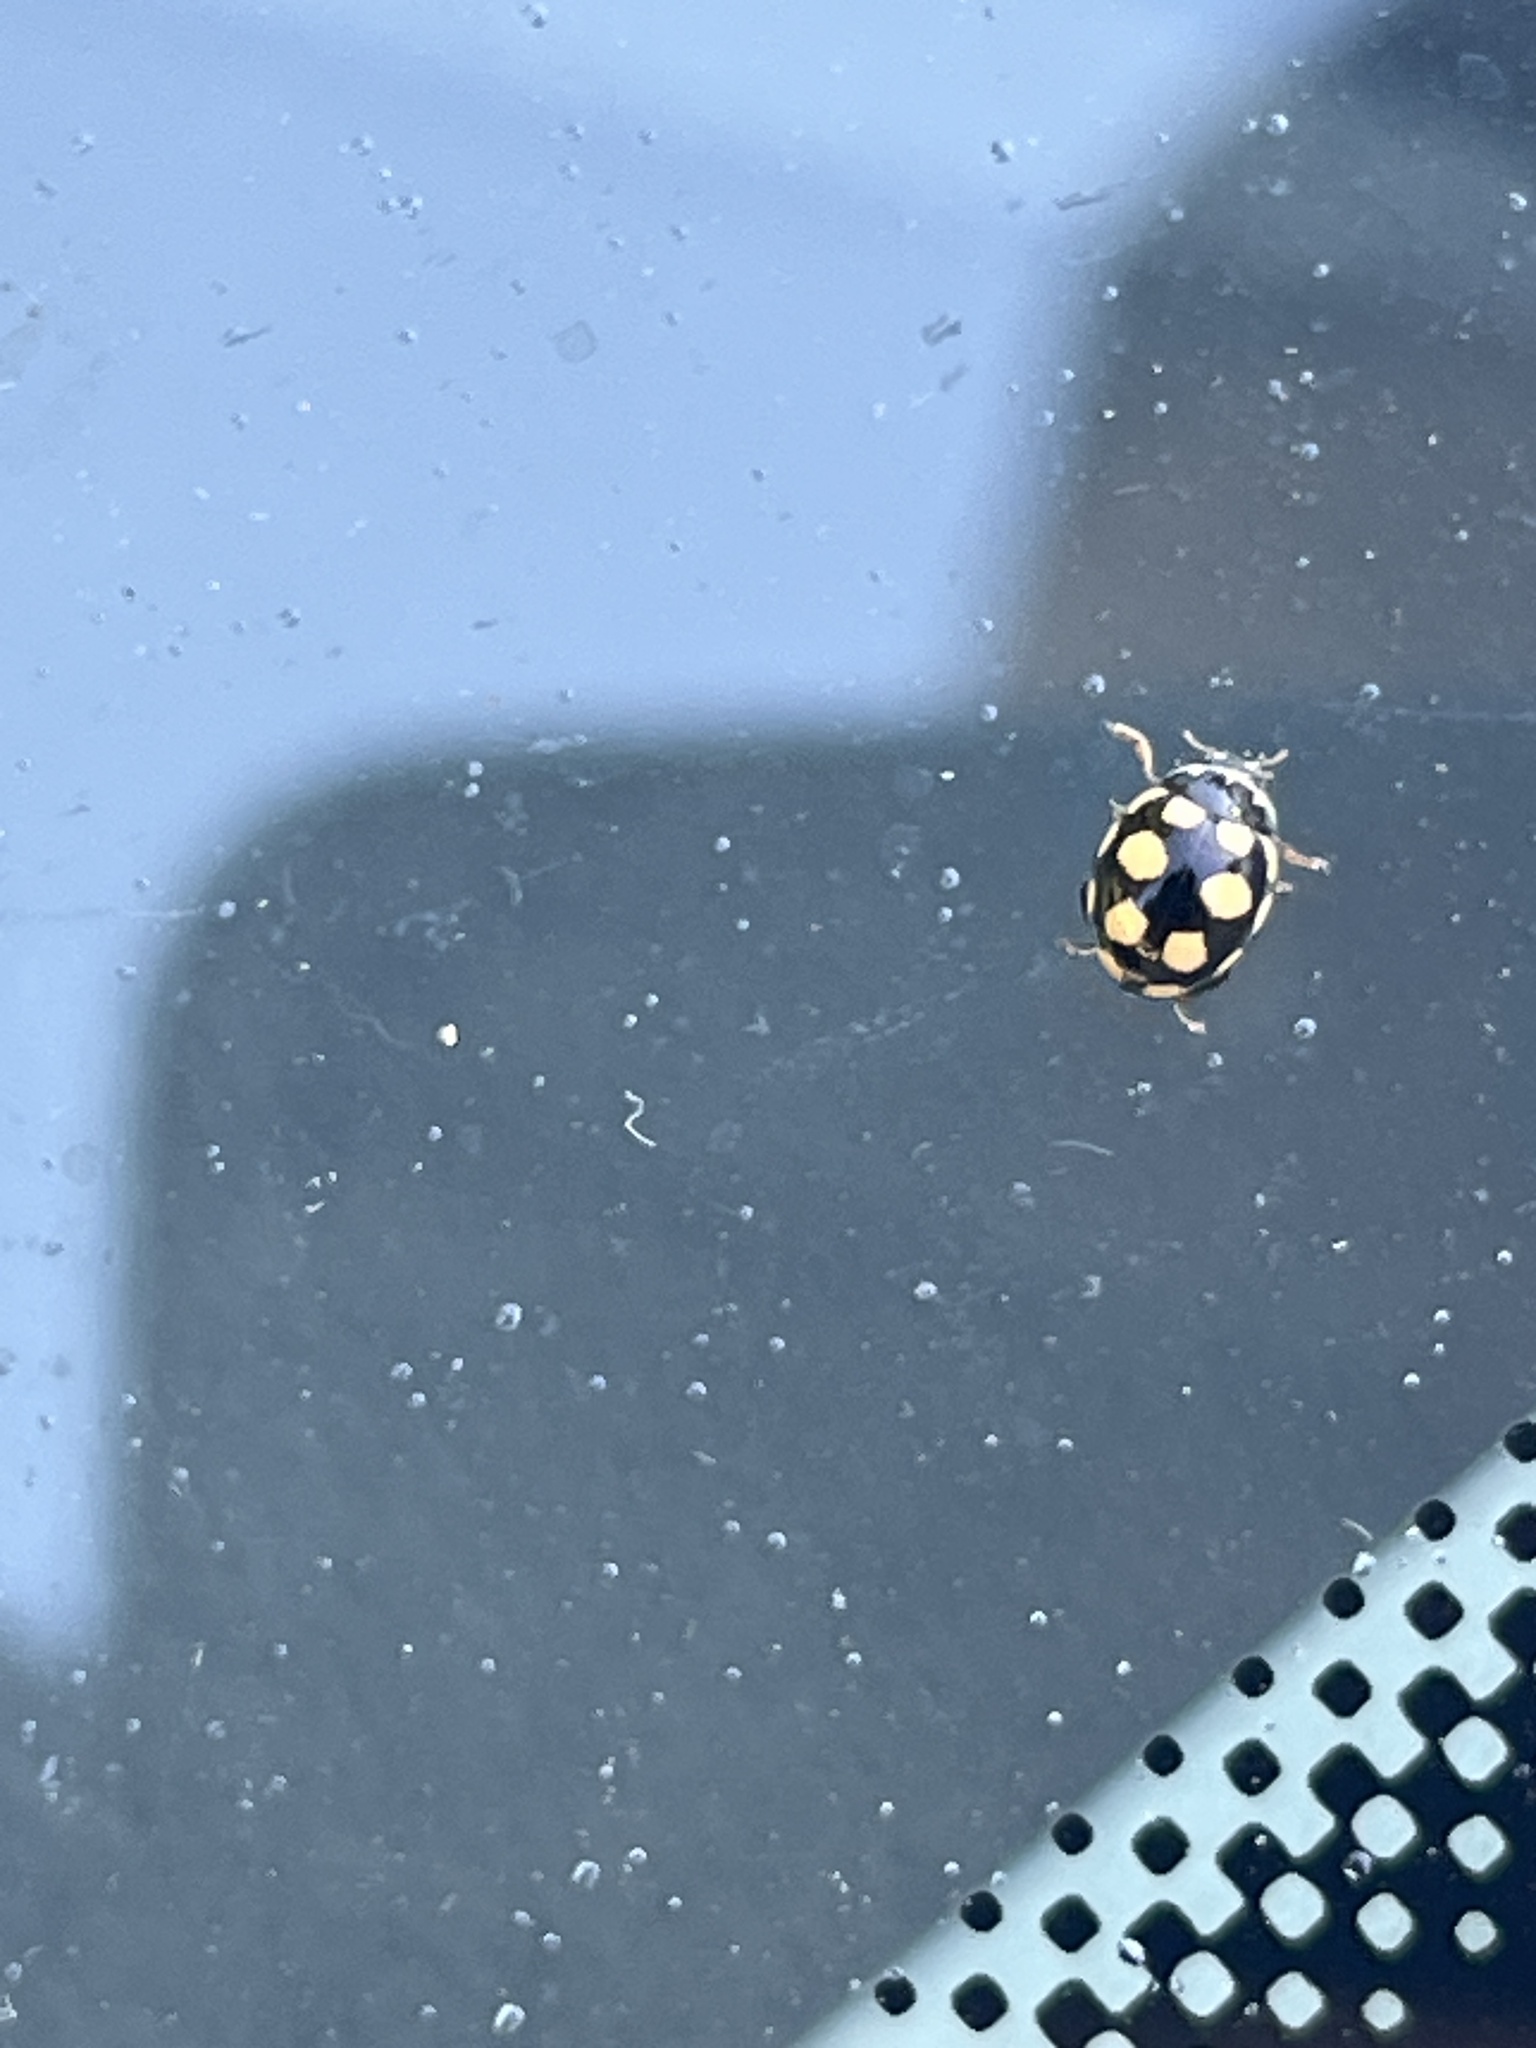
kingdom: Animalia
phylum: Arthropoda
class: Insecta
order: Coleoptera
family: Coccinellidae
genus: Coccinula
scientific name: Coccinula quatuordecimpustulata
